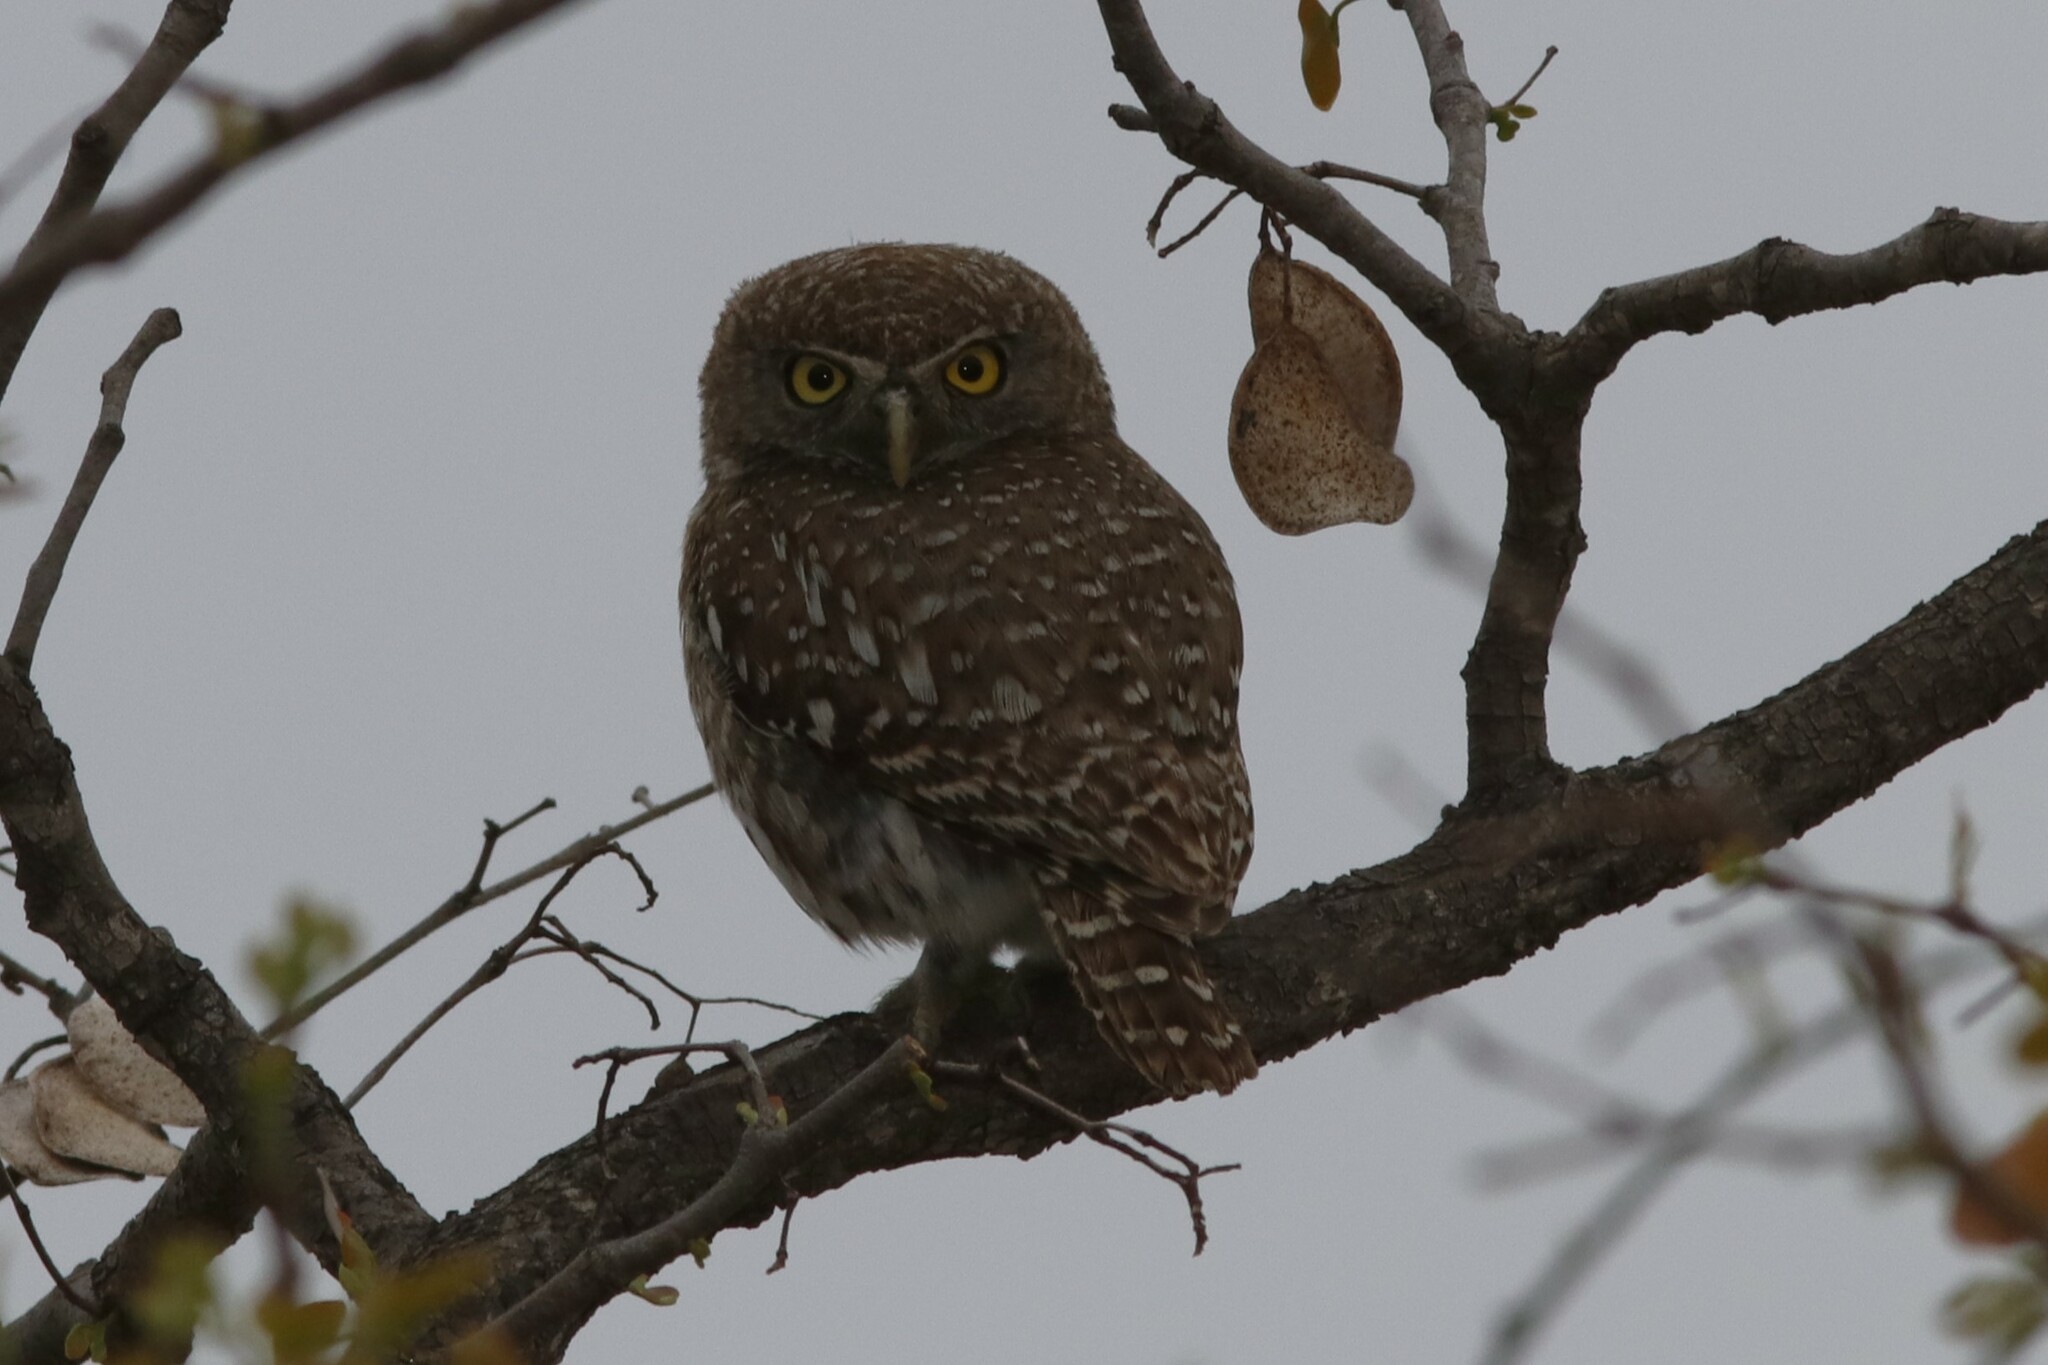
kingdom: Animalia
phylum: Chordata
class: Aves
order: Strigiformes
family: Strigidae
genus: Glaucidium
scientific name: Glaucidium perlatum
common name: Pearl-spotted owlet
